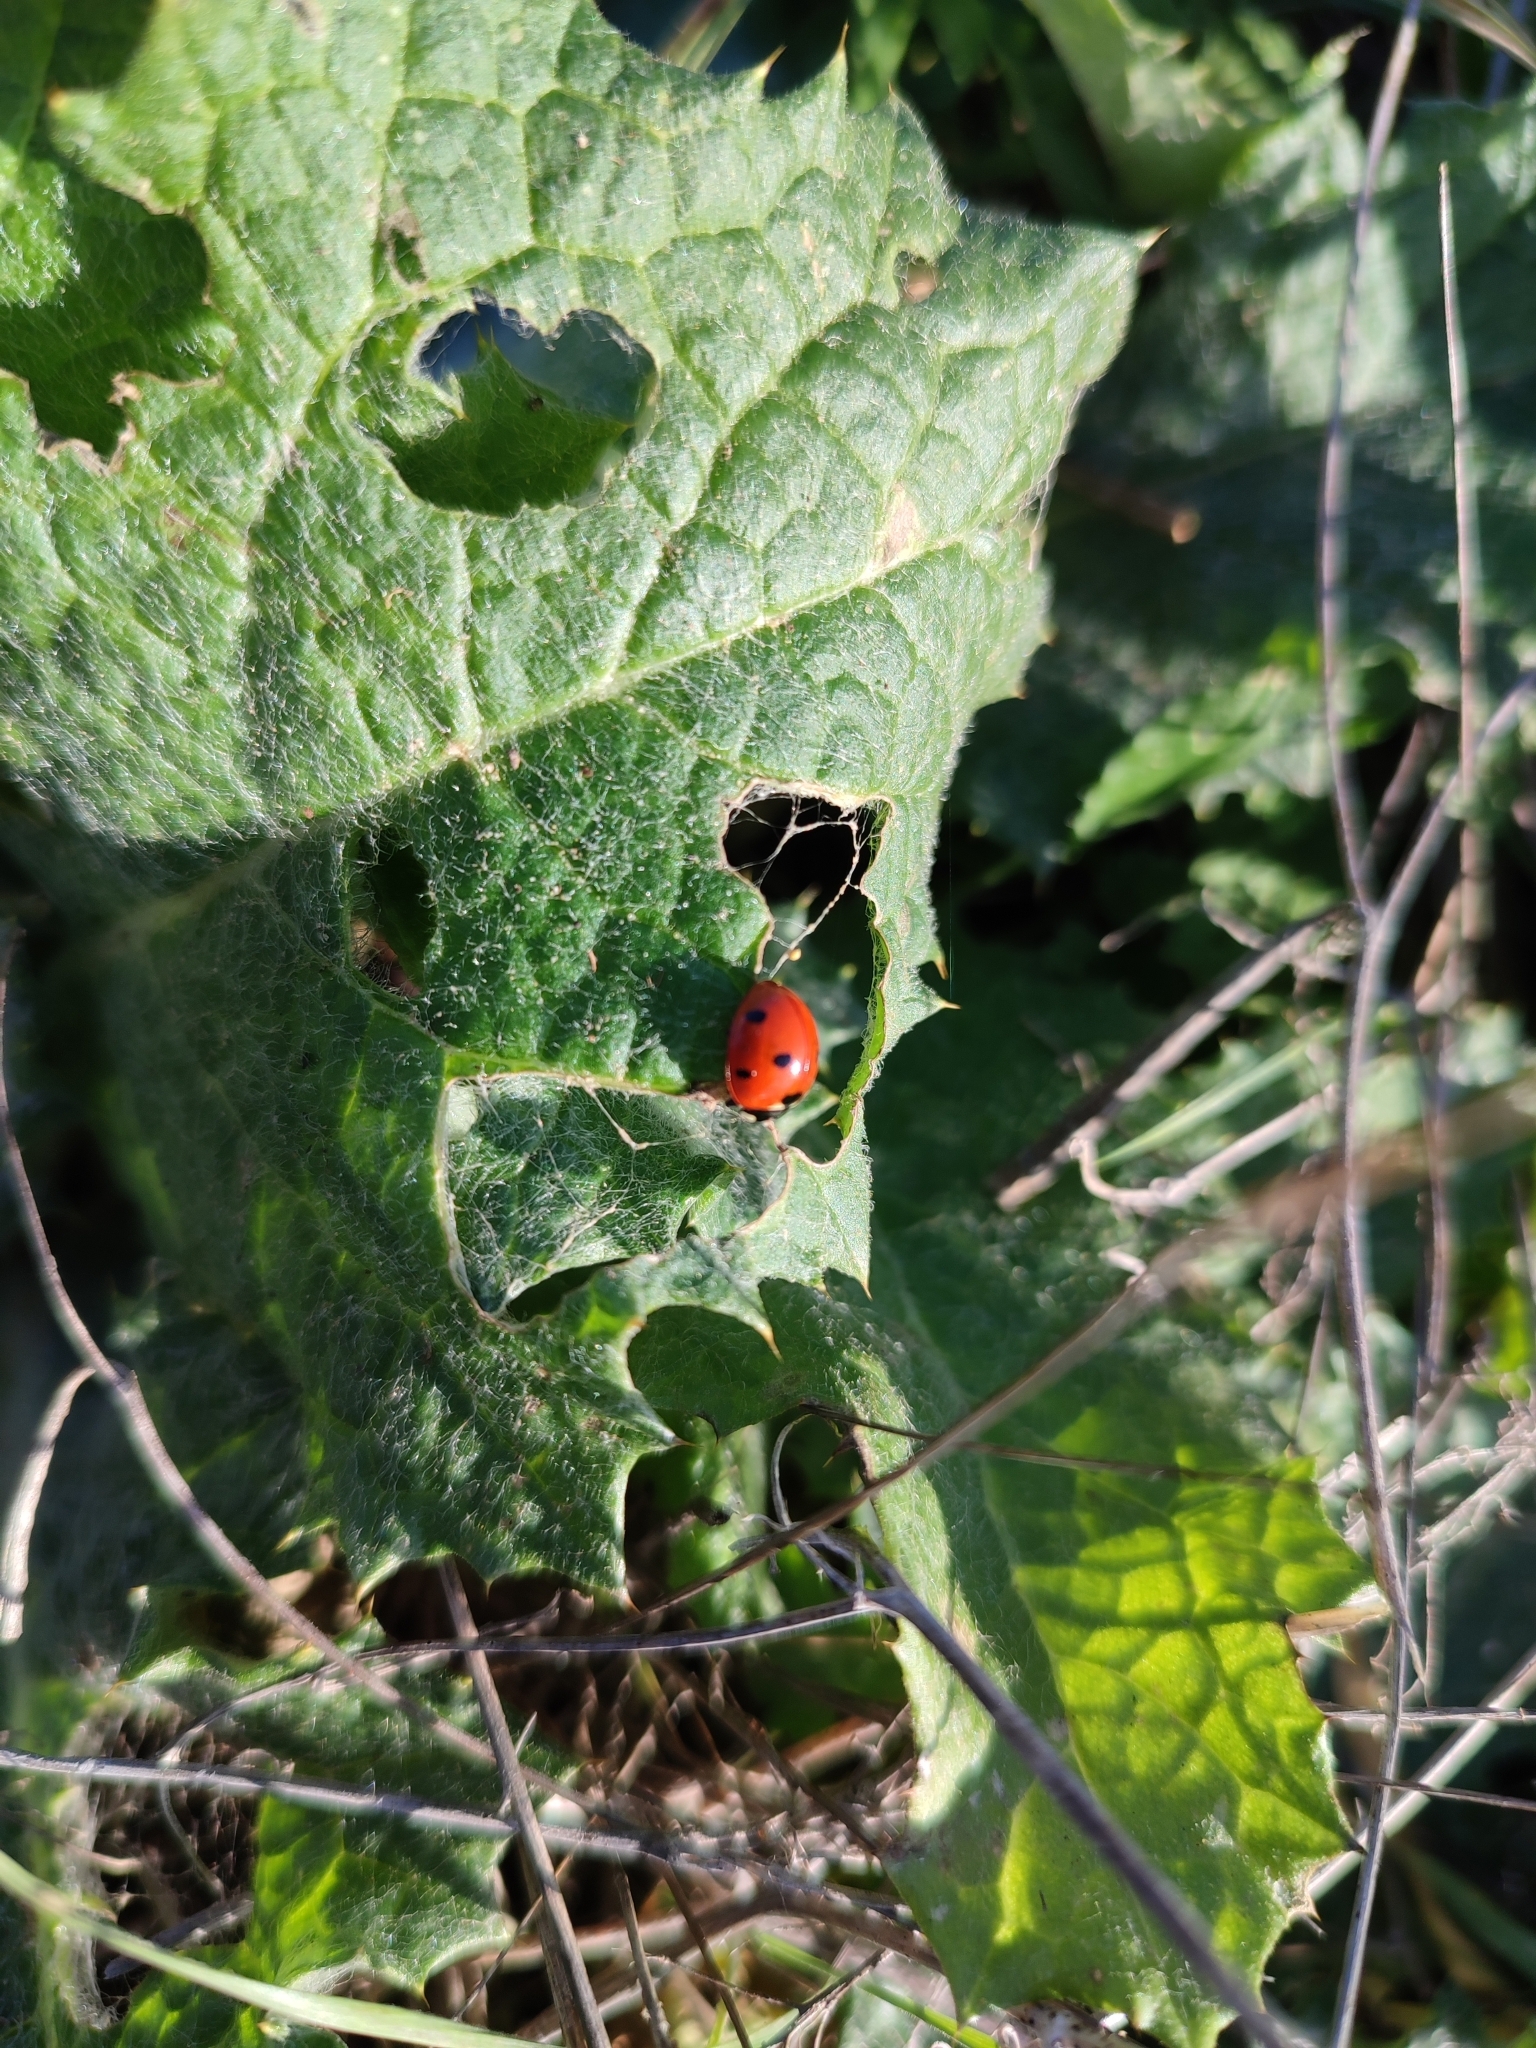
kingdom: Animalia
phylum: Arthropoda
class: Insecta
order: Coleoptera
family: Coccinellidae
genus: Coccinella
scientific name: Coccinella septempunctata
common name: Sevenspotted lady beetle
